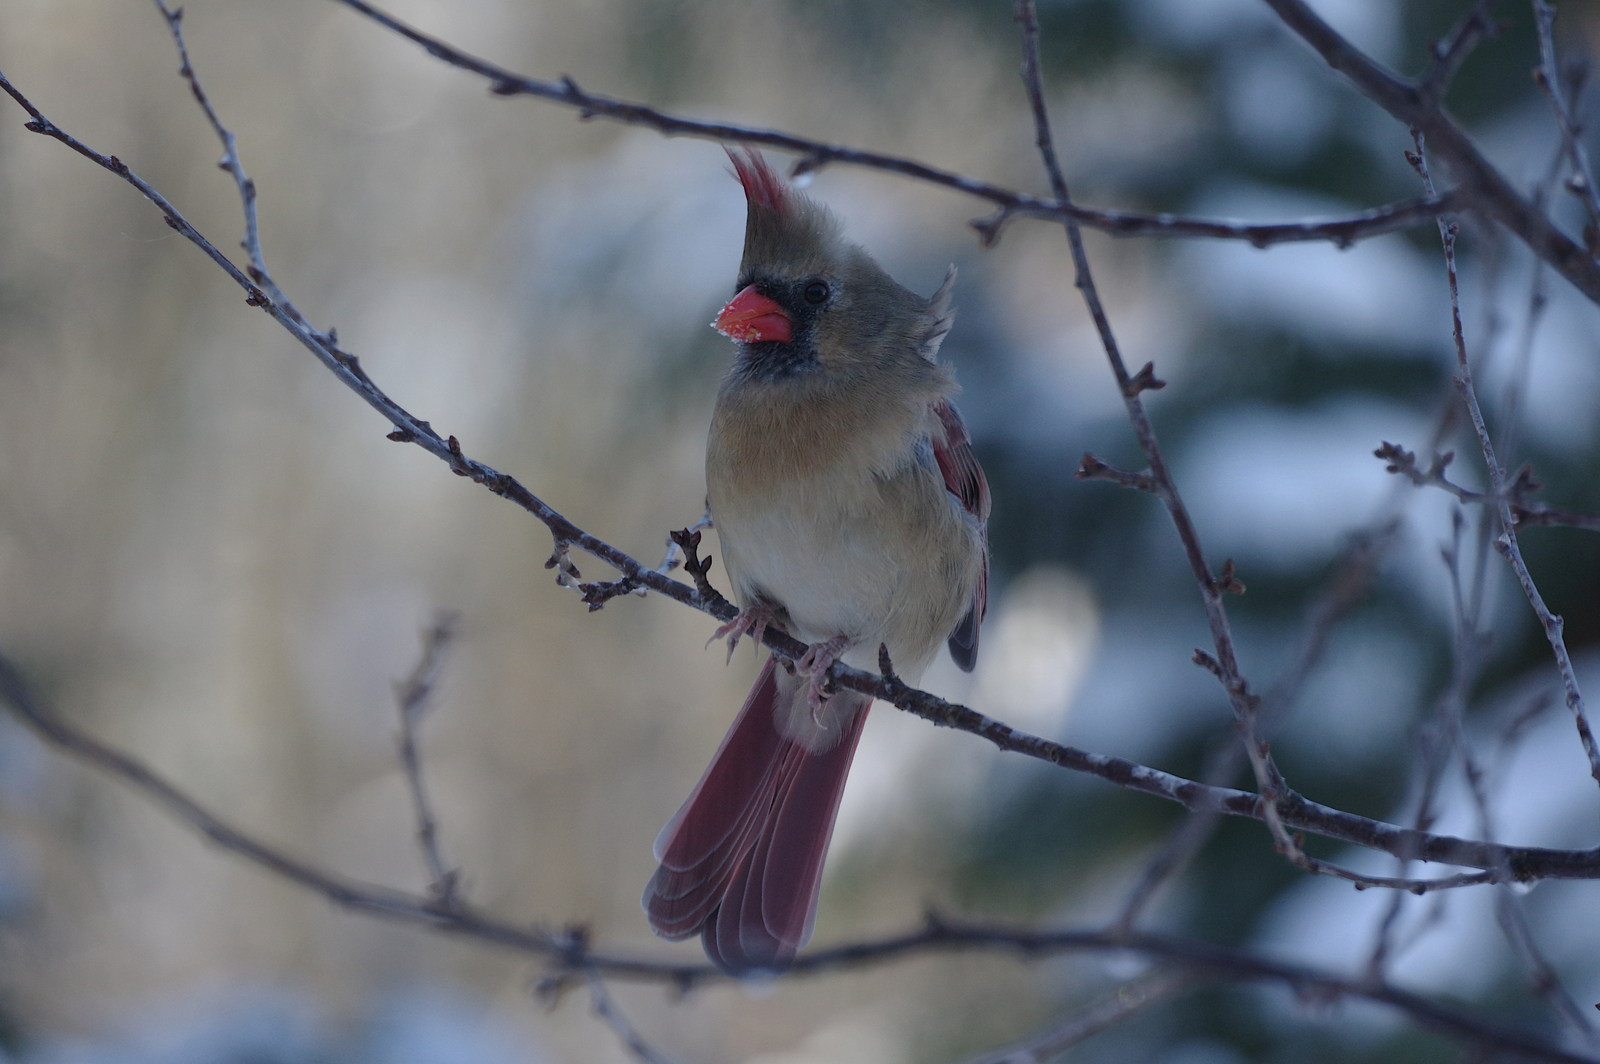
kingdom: Animalia
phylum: Chordata
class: Aves
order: Passeriformes
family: Cardinalidae
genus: Cardinalis
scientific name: Cardinalis cardinalis
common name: Northern cardinal
